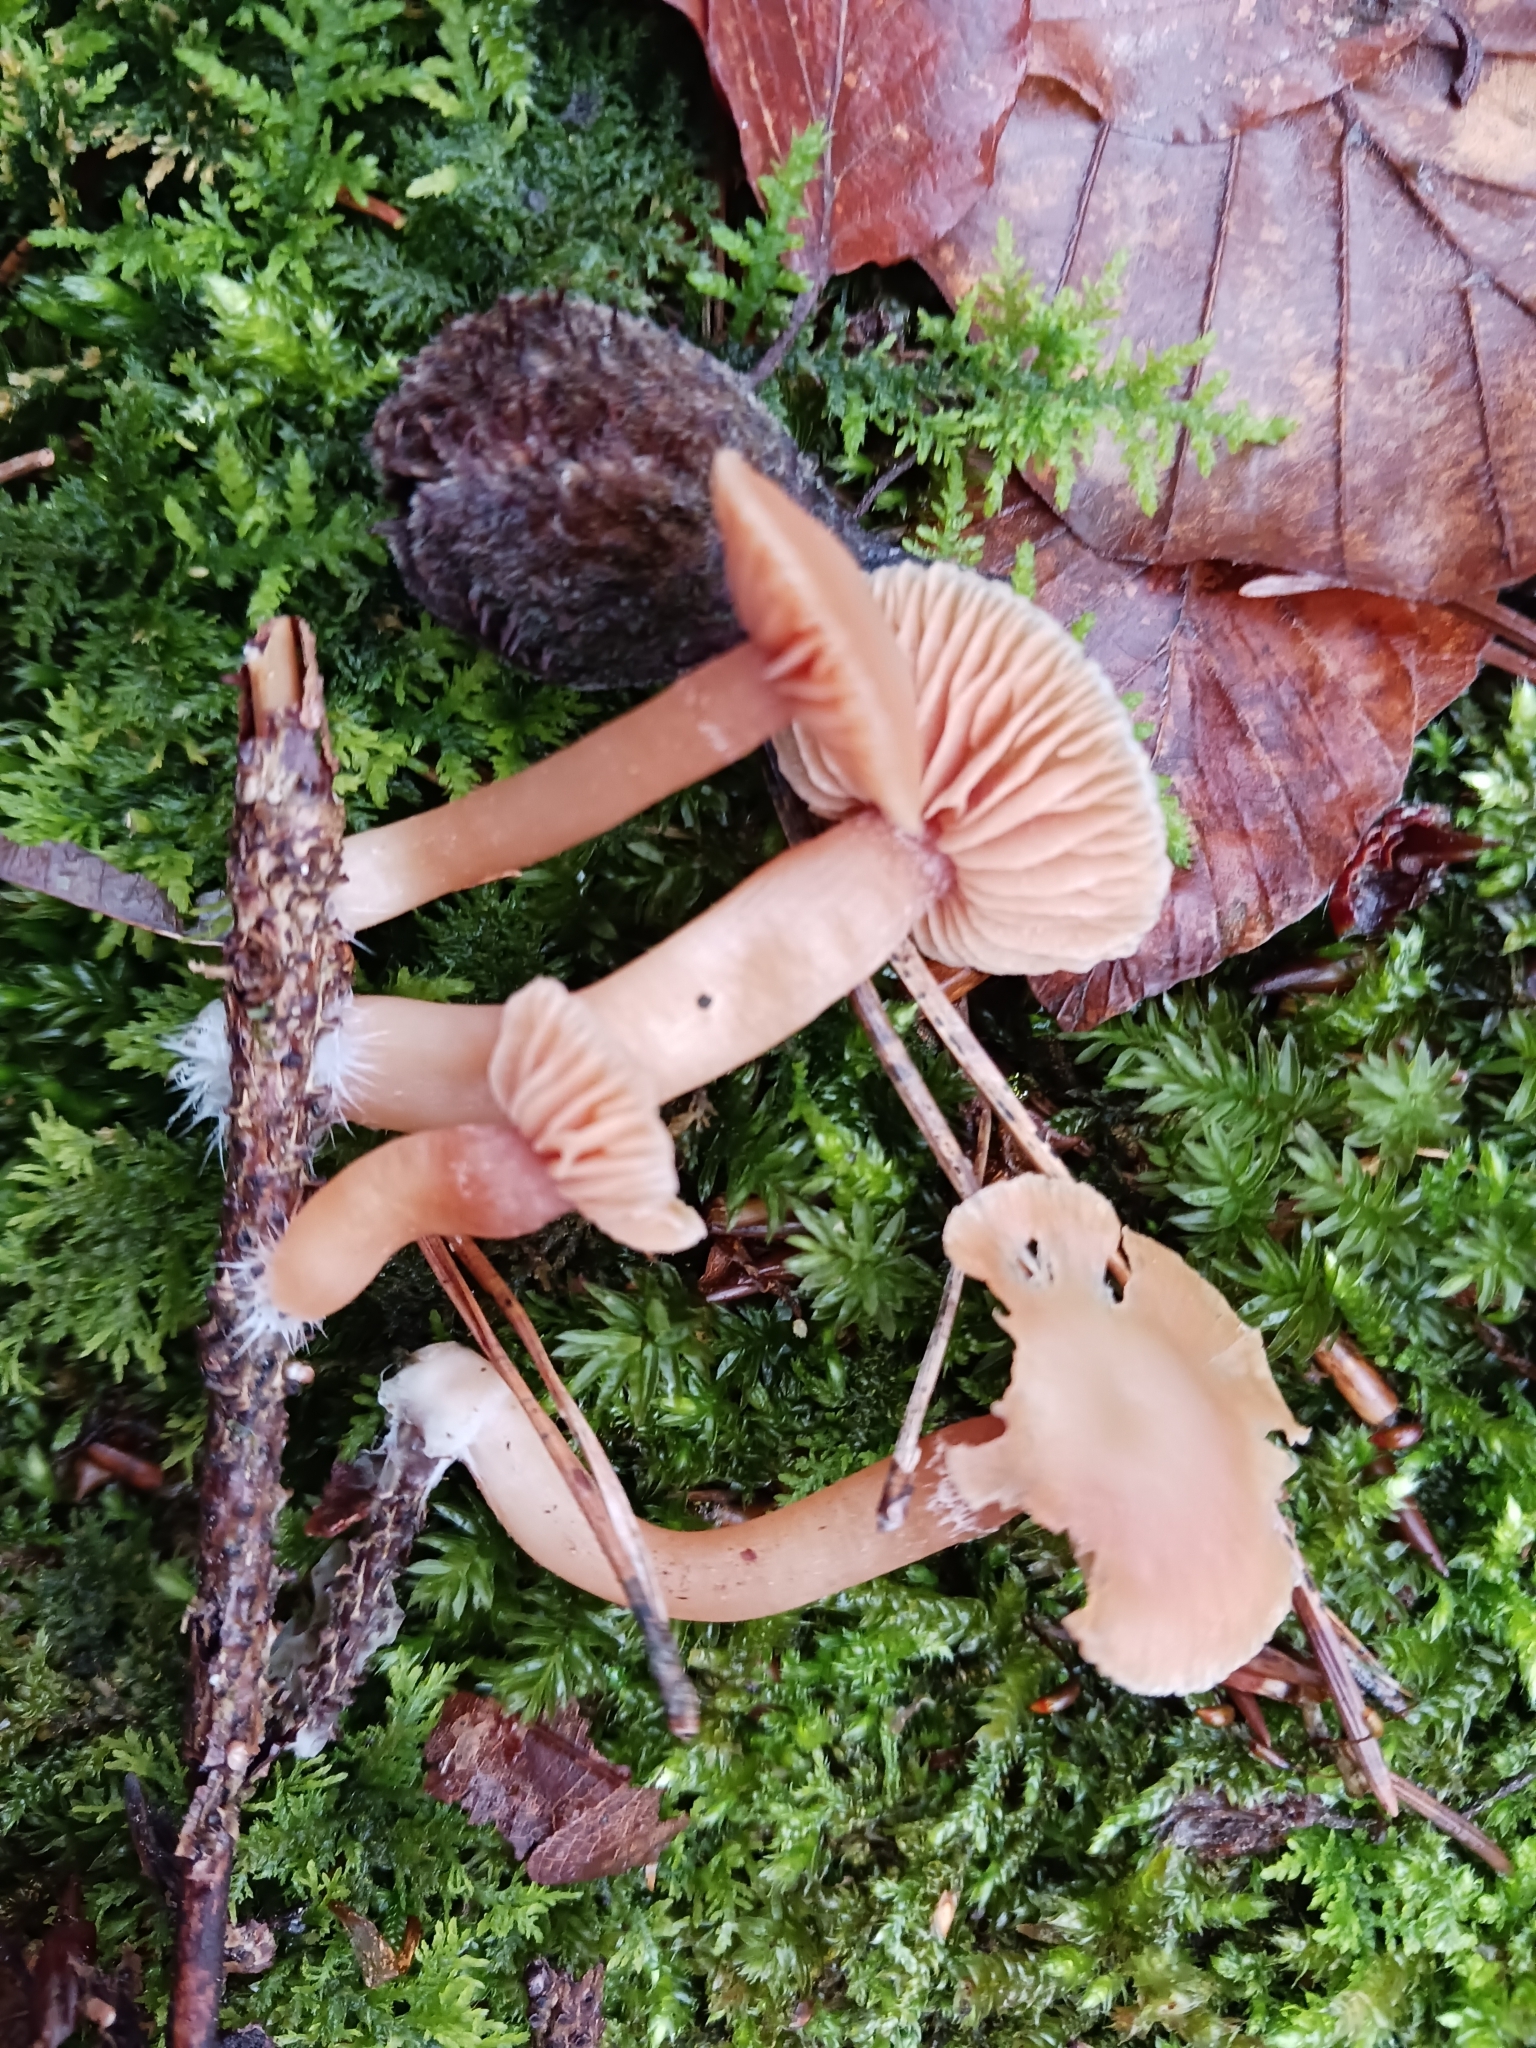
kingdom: Fungi
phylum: Basidiomycota
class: Agaricomycetes
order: Agaricales
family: Tubariaceae
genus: Tubaria
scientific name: Tubaria furfuracea
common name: Scurfy twiglet
